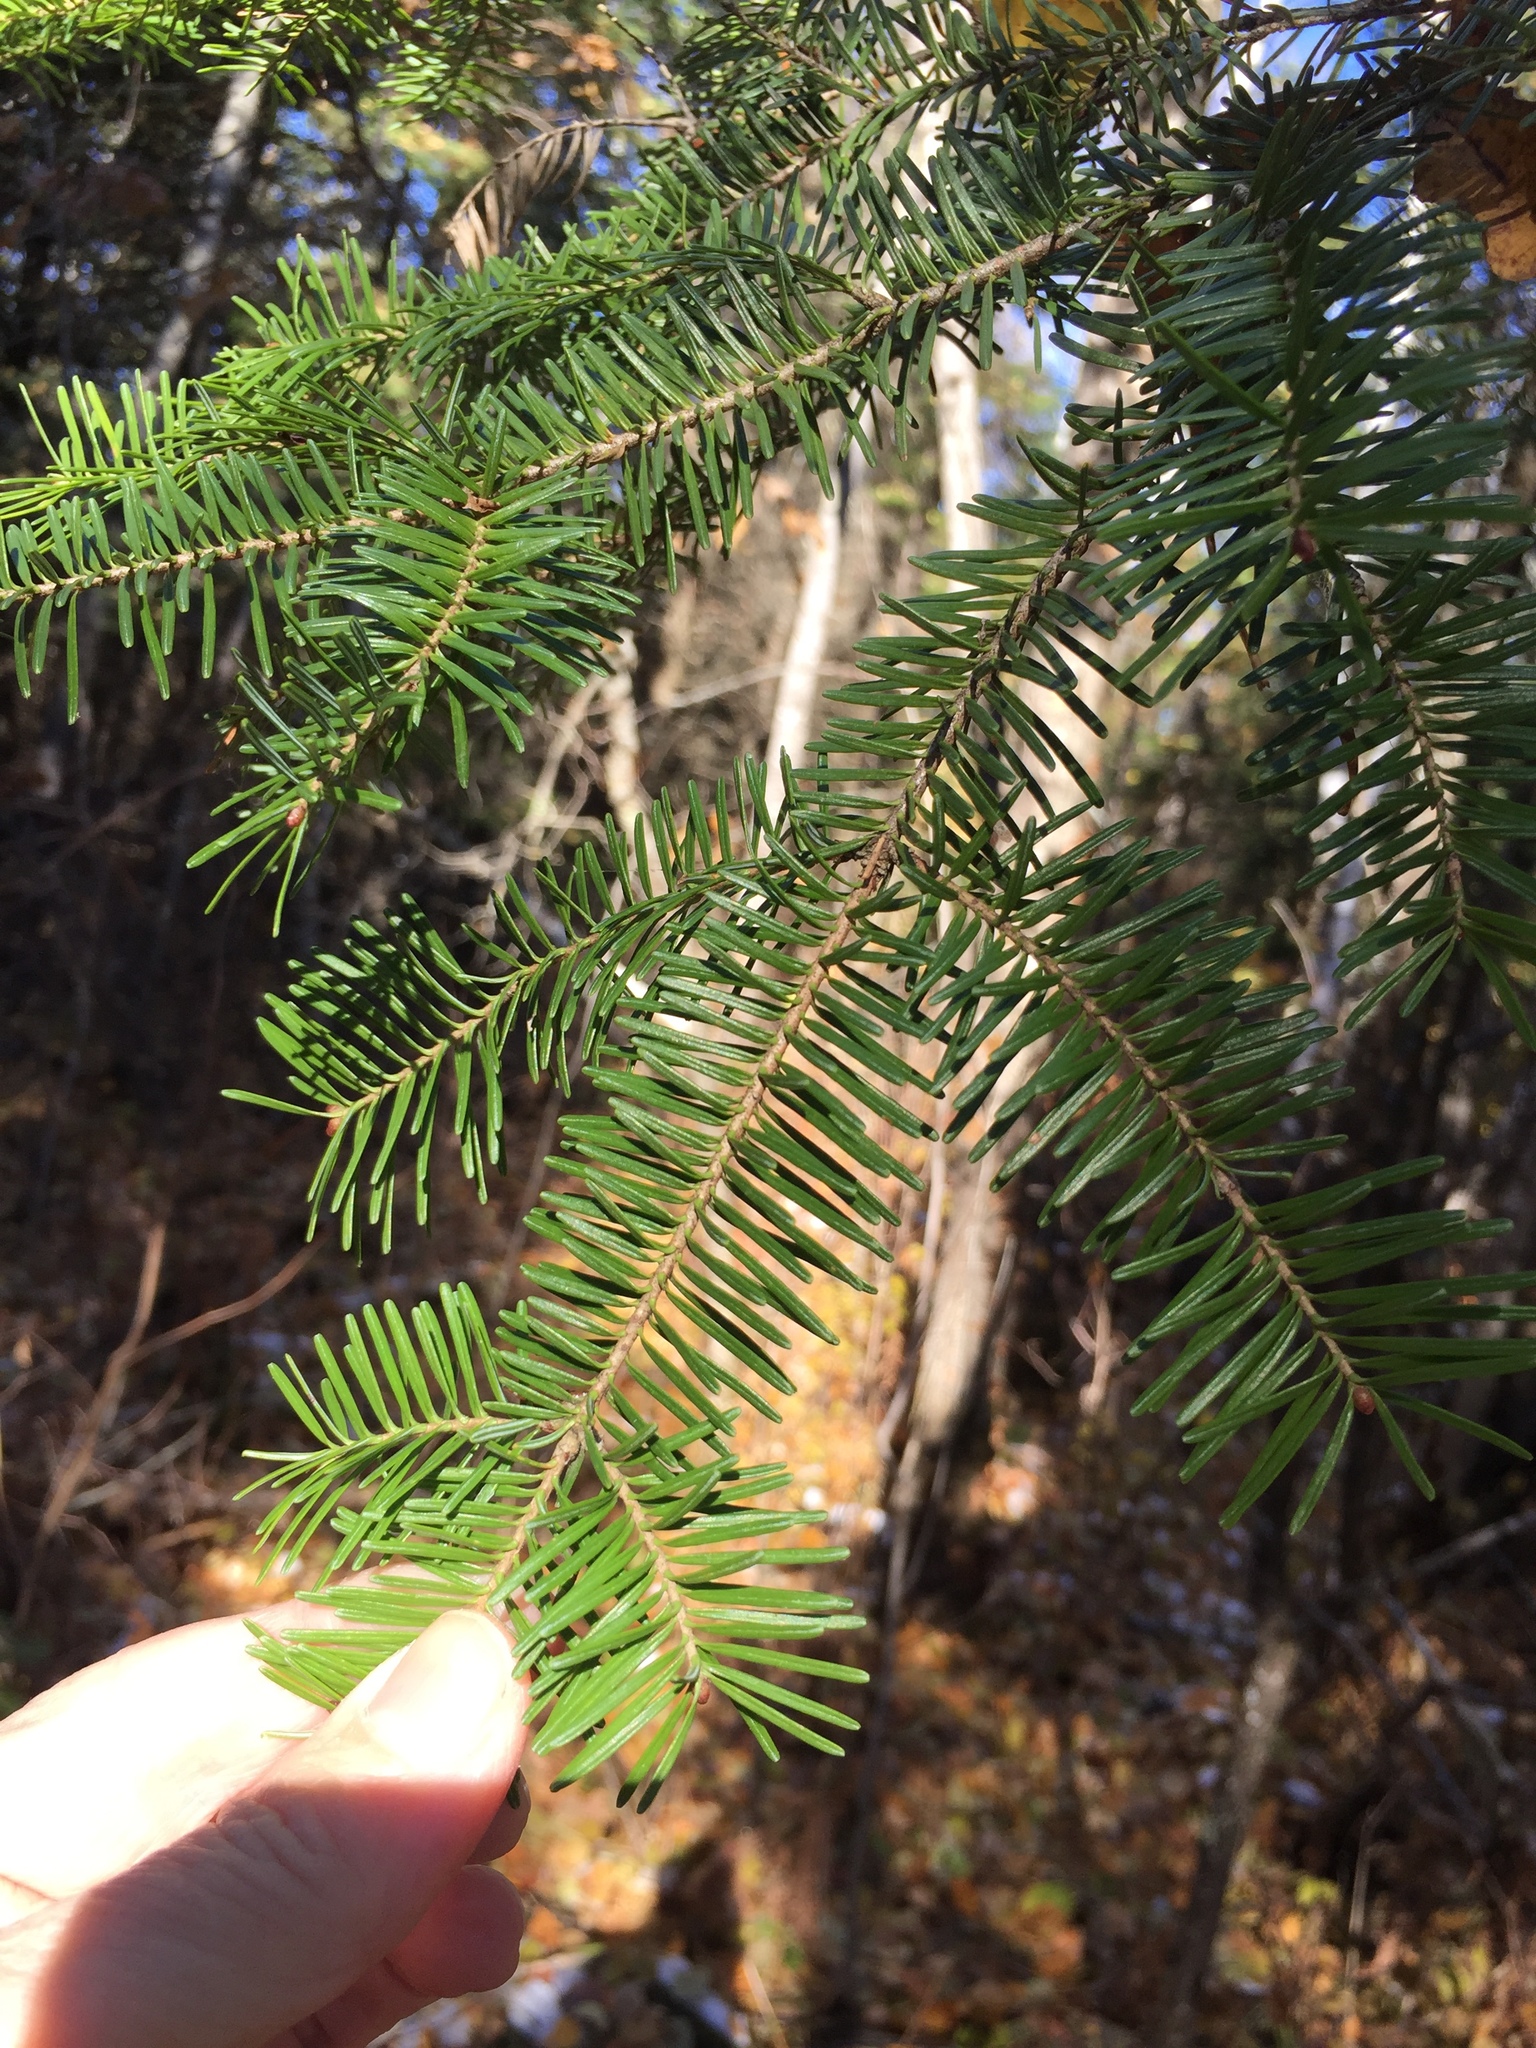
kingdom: Plantae
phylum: Tracheophyta
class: Pinopsida
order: Pinales
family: Pinaceae
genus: Abies
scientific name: Abies balsamea
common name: Balsam fir
